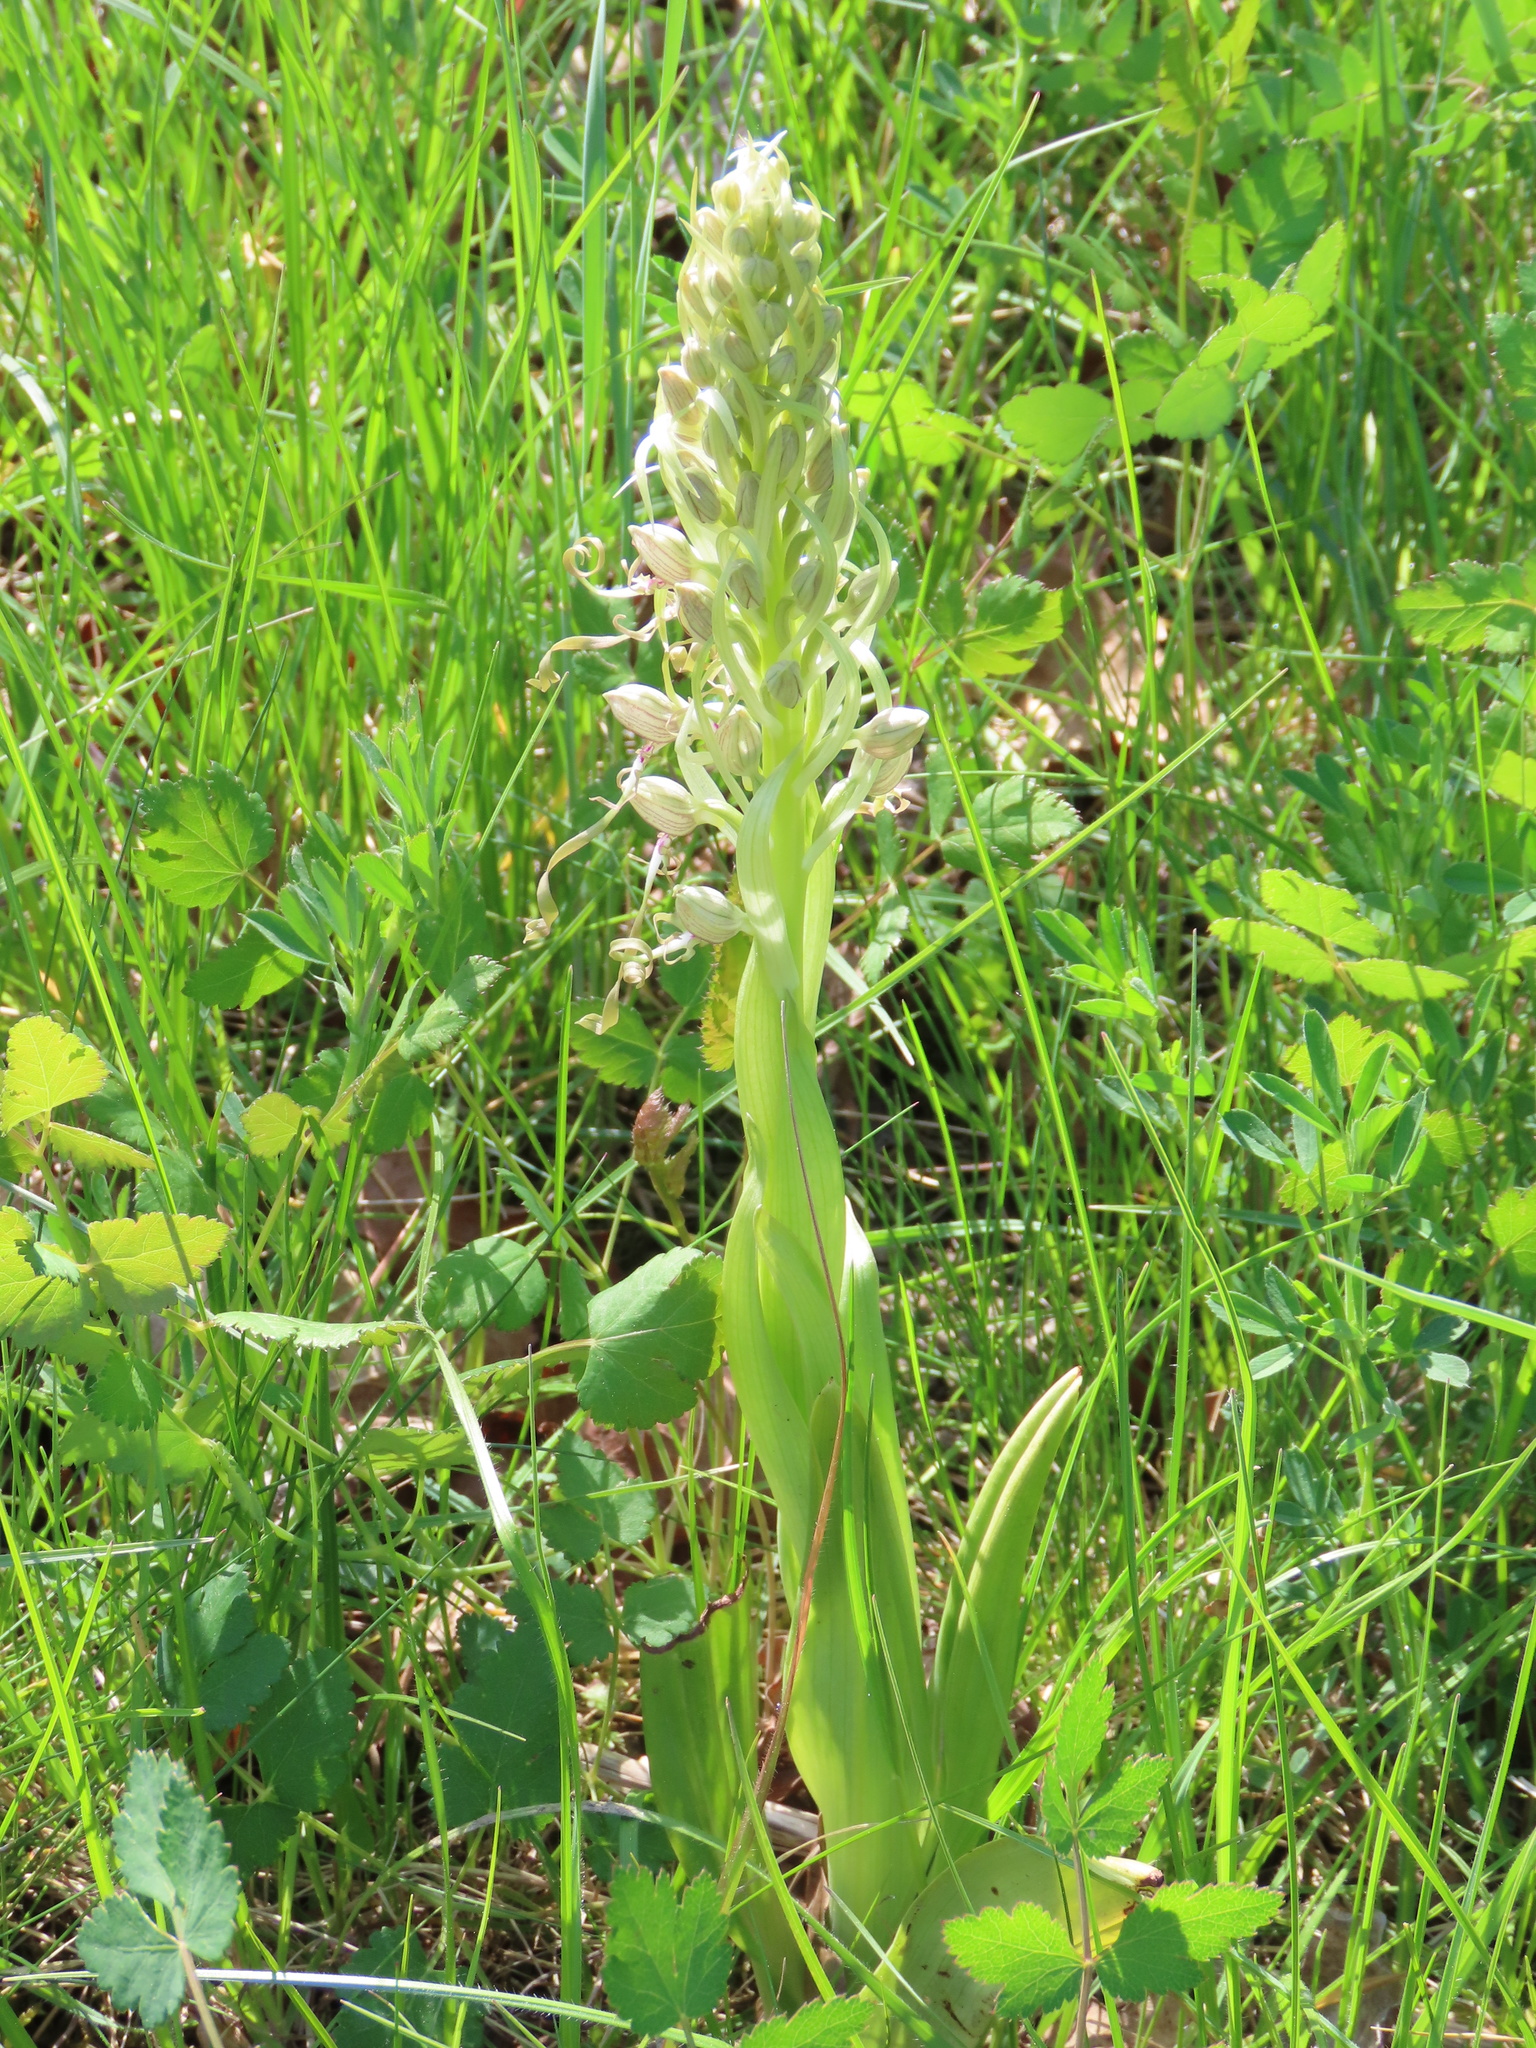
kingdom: Plantae
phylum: Tracheophyta
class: Liliopsida
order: Asparagales
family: Orchidaceae
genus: Himantoglossum
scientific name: Himantoglossum hircinum
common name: Lizard orchid
